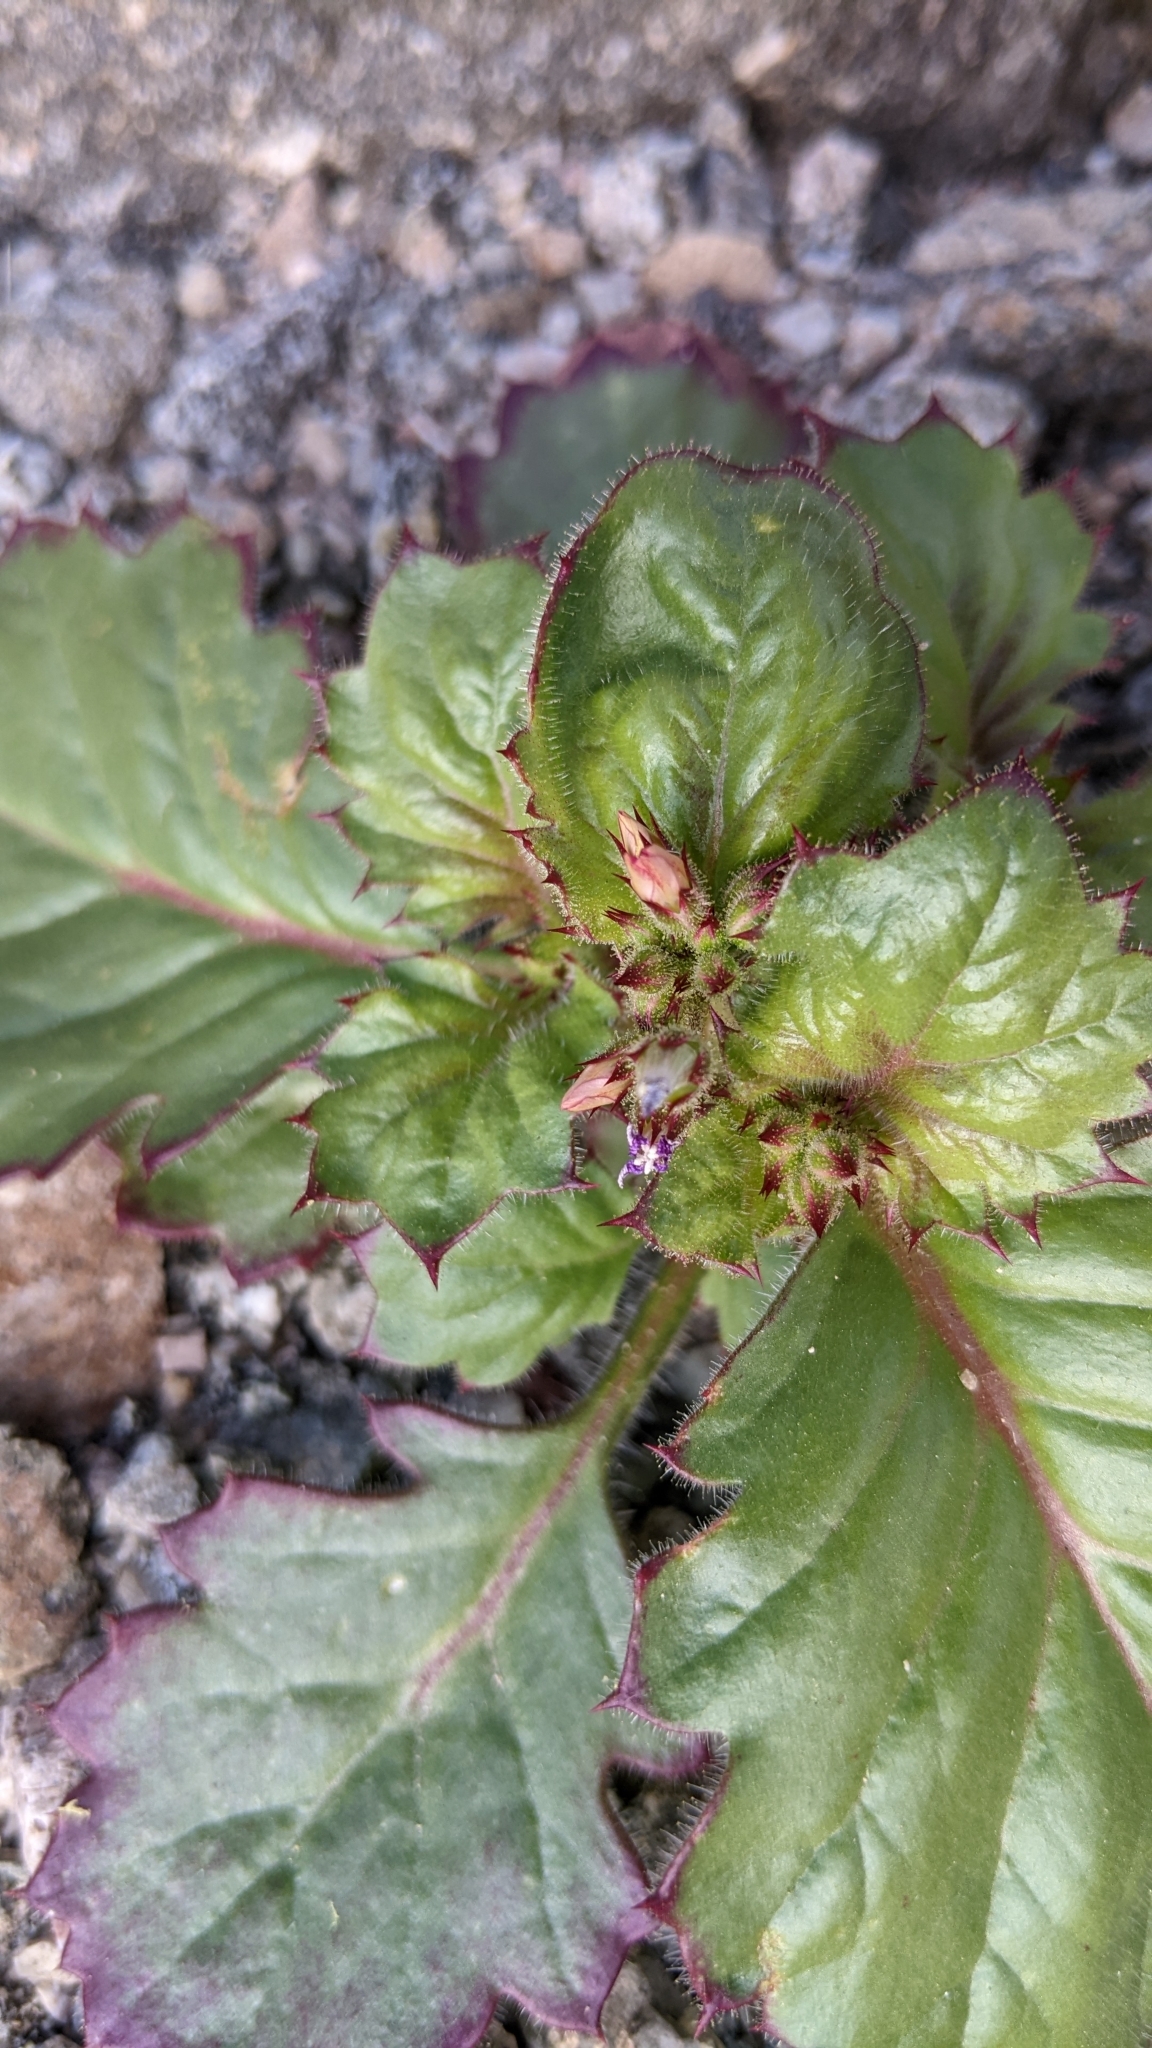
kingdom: Plantae
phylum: Tracheophyta
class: Magnoliopsida
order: Ericales
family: Polemoniaceae
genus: Aliciella
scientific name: Aliciella latifolia
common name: Broad-leaf gilia
